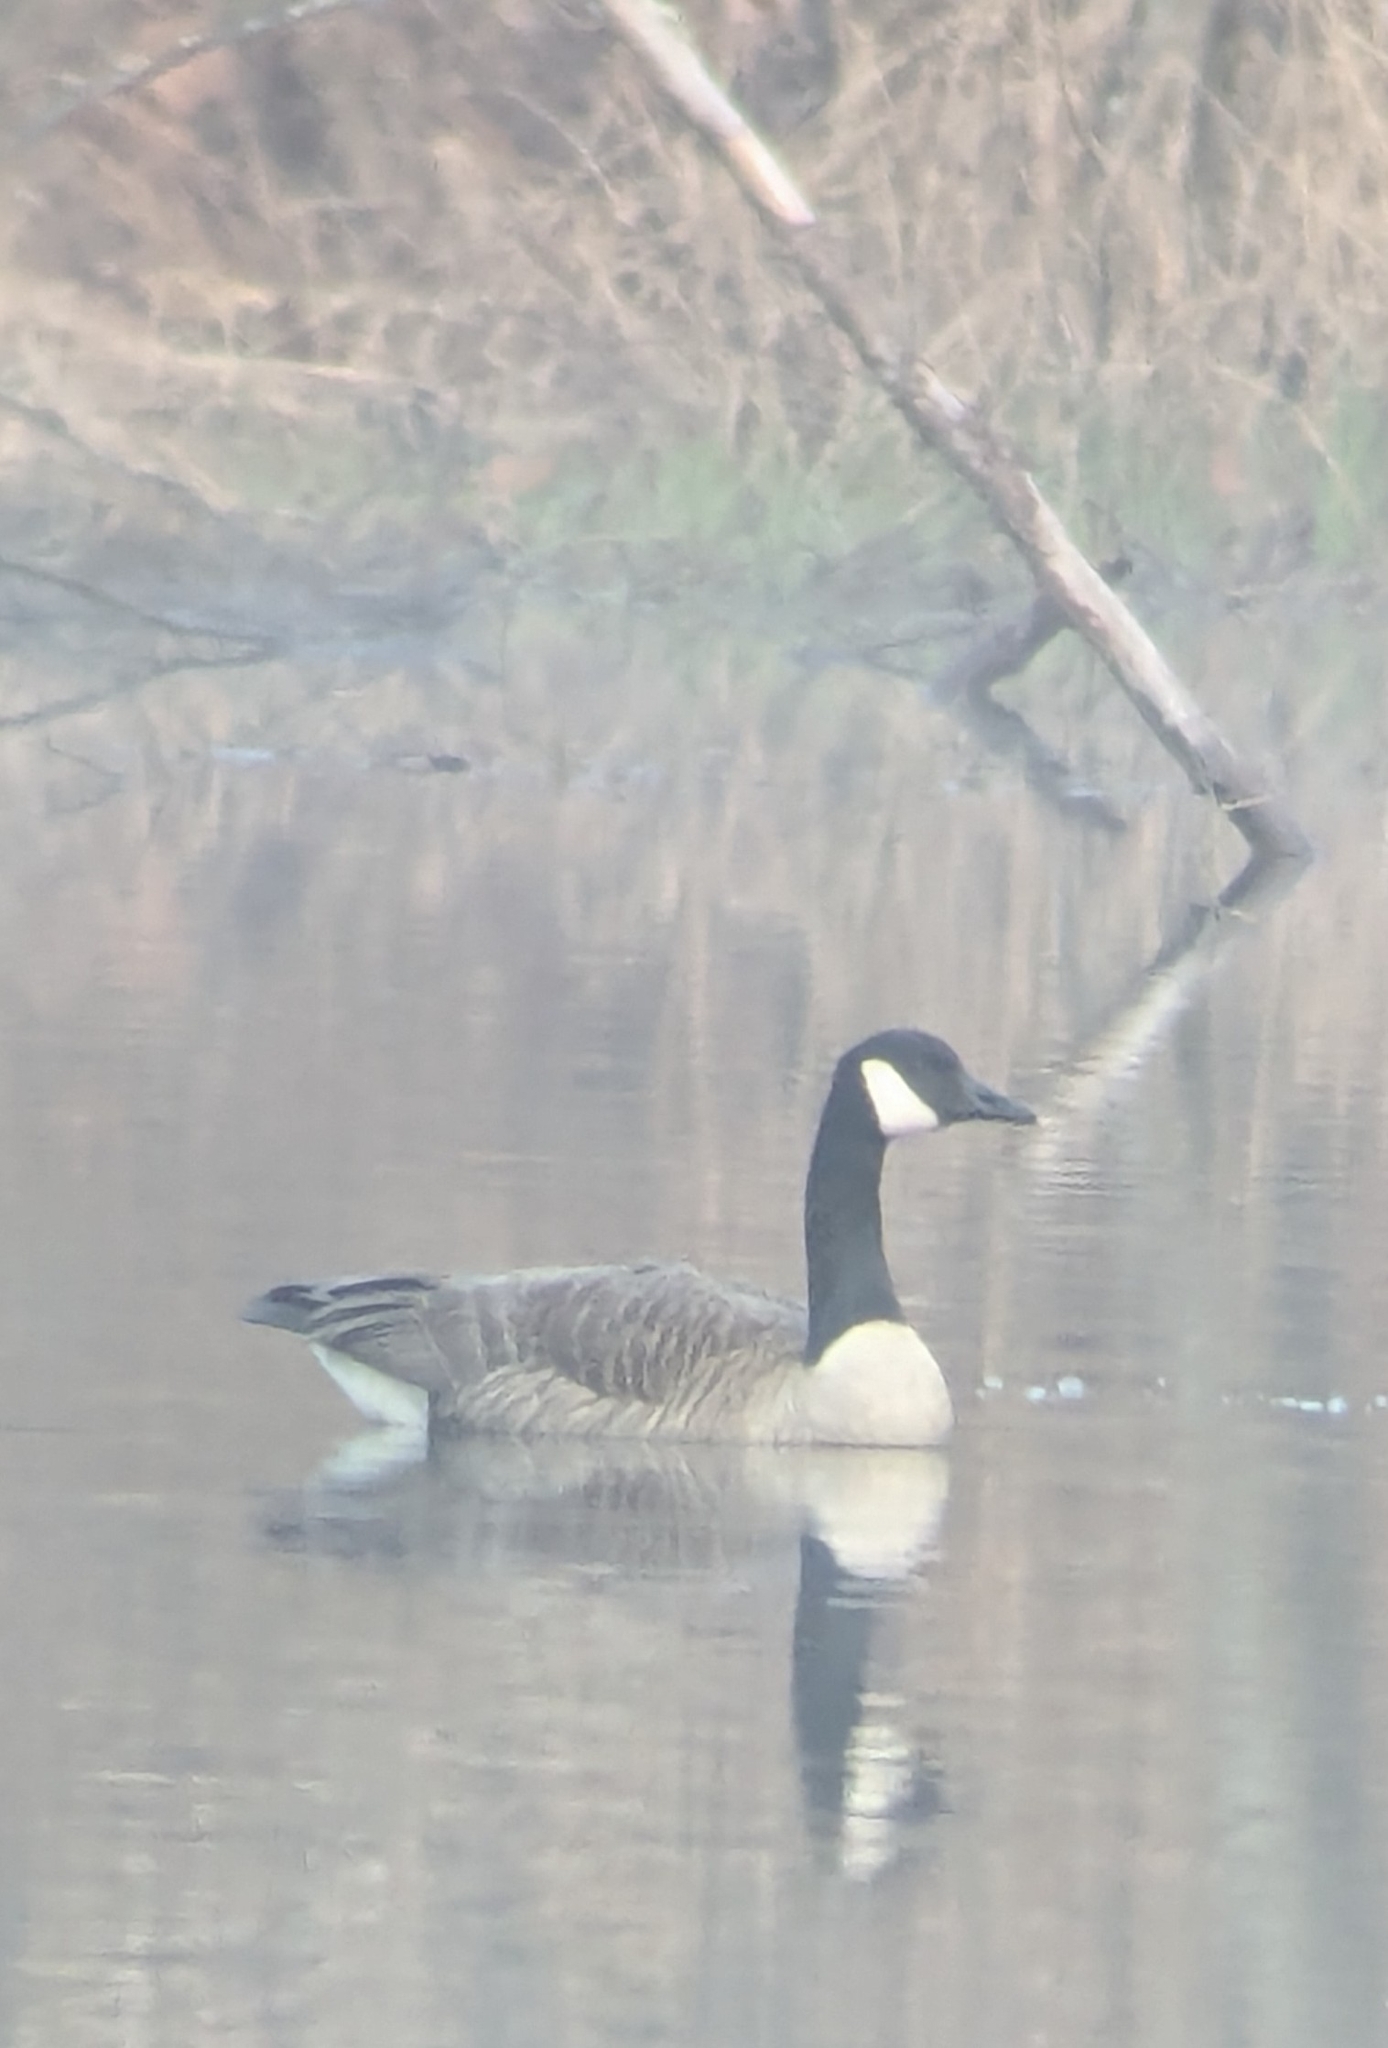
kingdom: Animalia
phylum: Chordata
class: Aves
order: Anseriformes
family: Anatidae
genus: Branta
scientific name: Branta canadensis
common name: Canada goose
